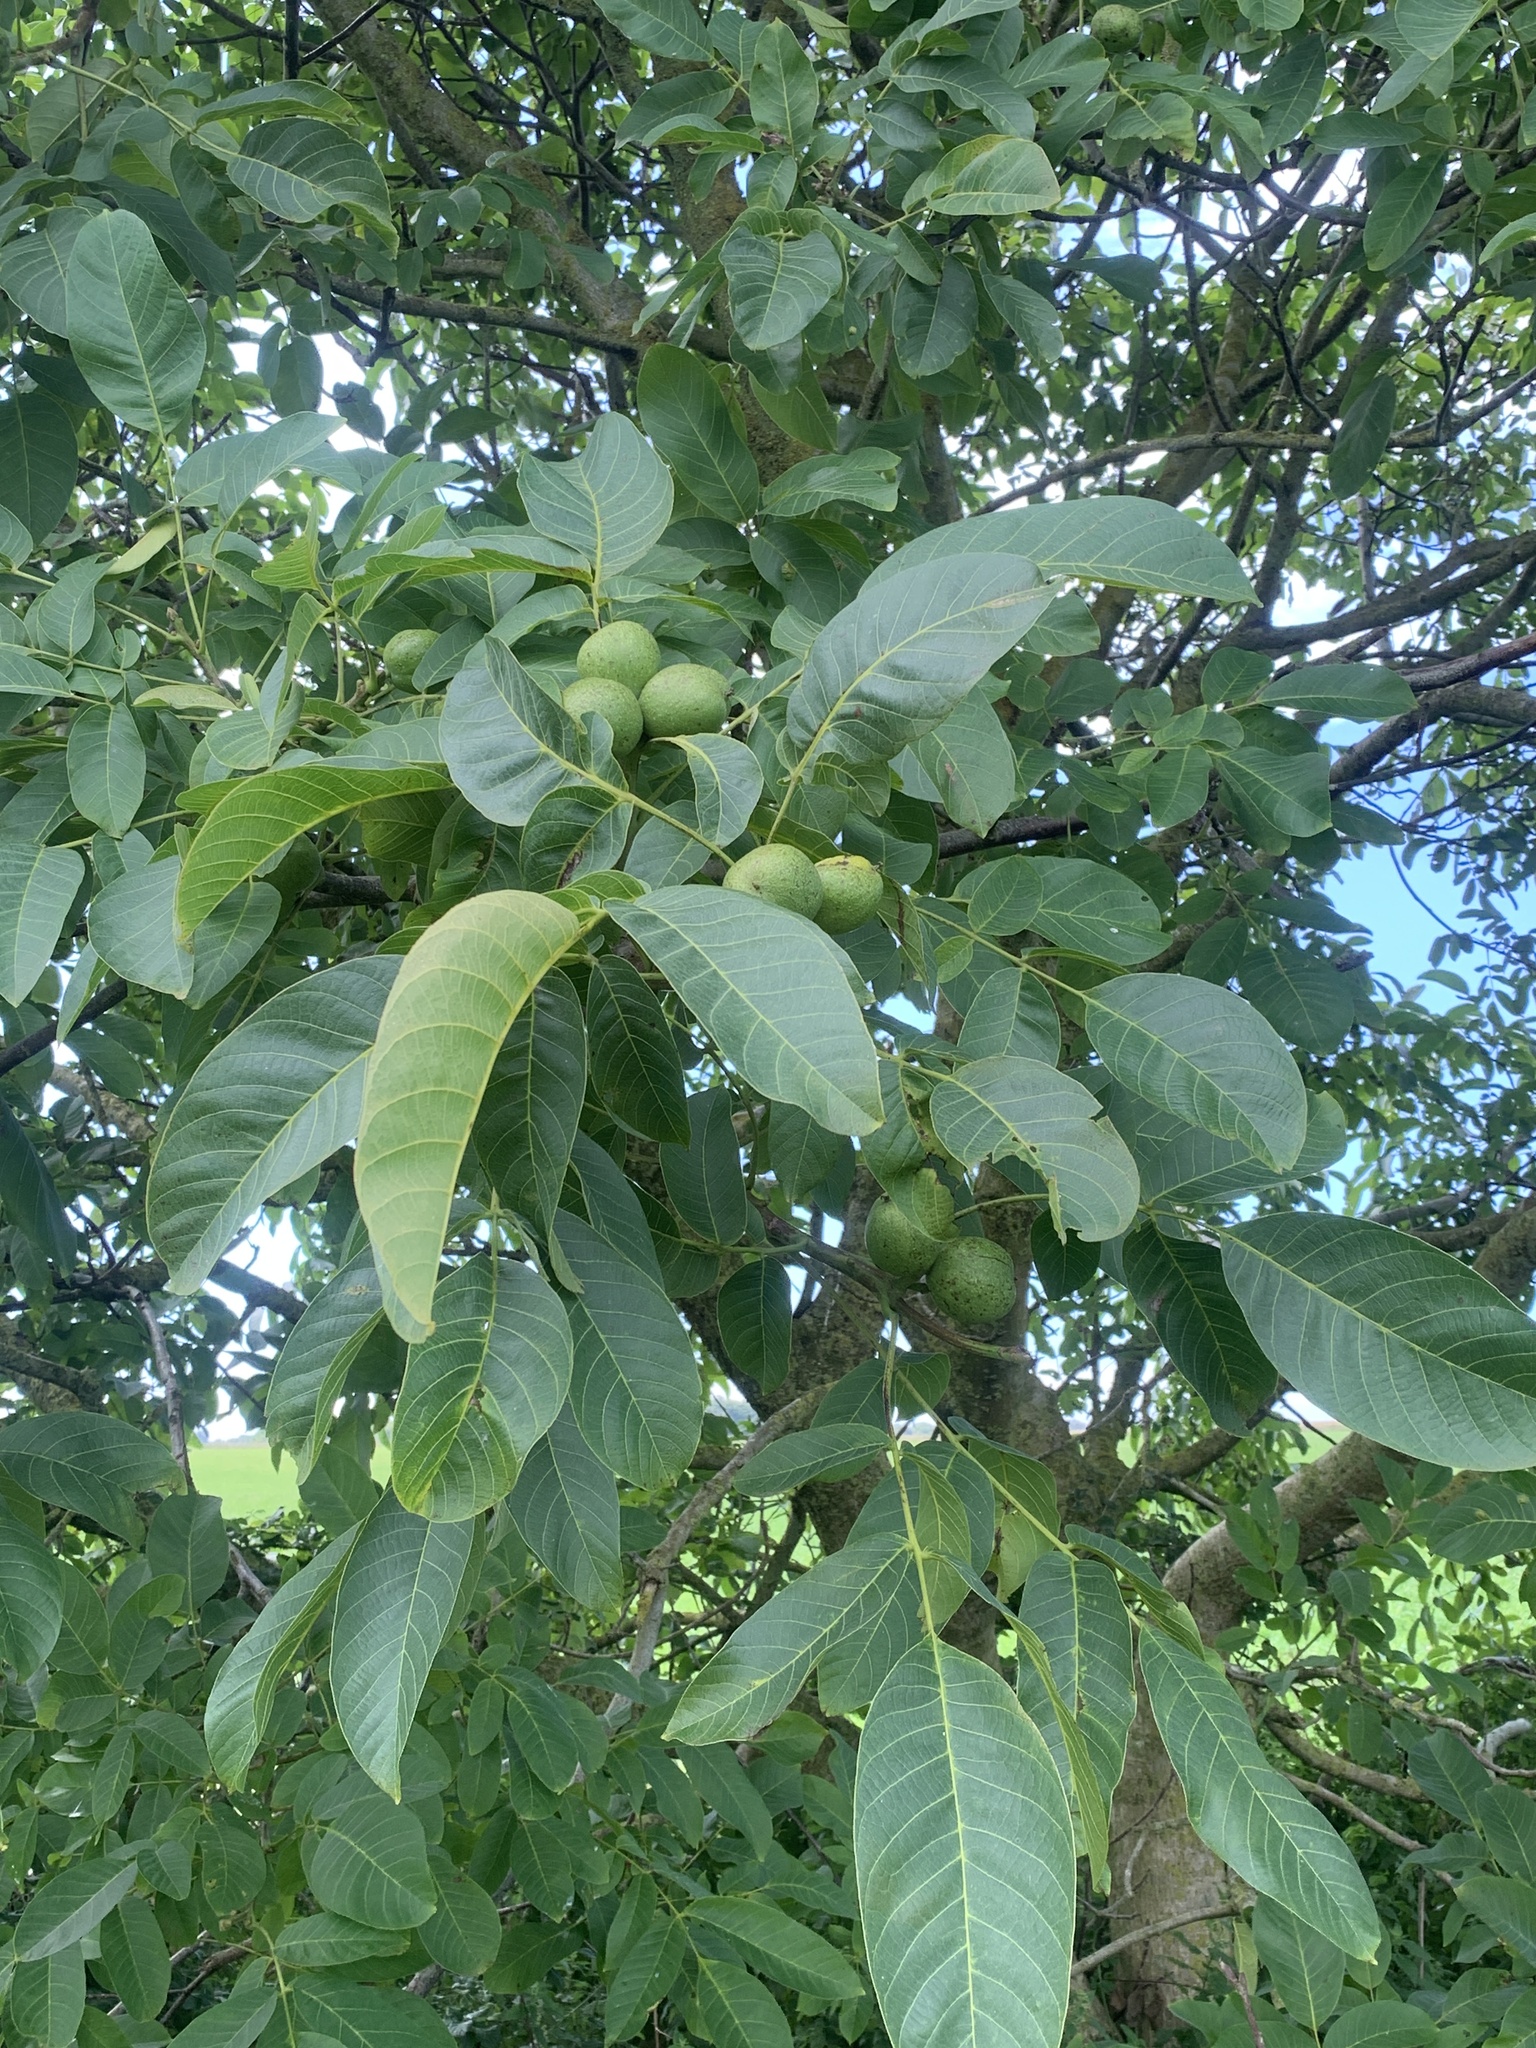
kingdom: Plantae
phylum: Tracheophyta
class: Magnoliopsida
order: Fagales
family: Juglandaceae
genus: Juglans
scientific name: Juglans regia
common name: Walnut
